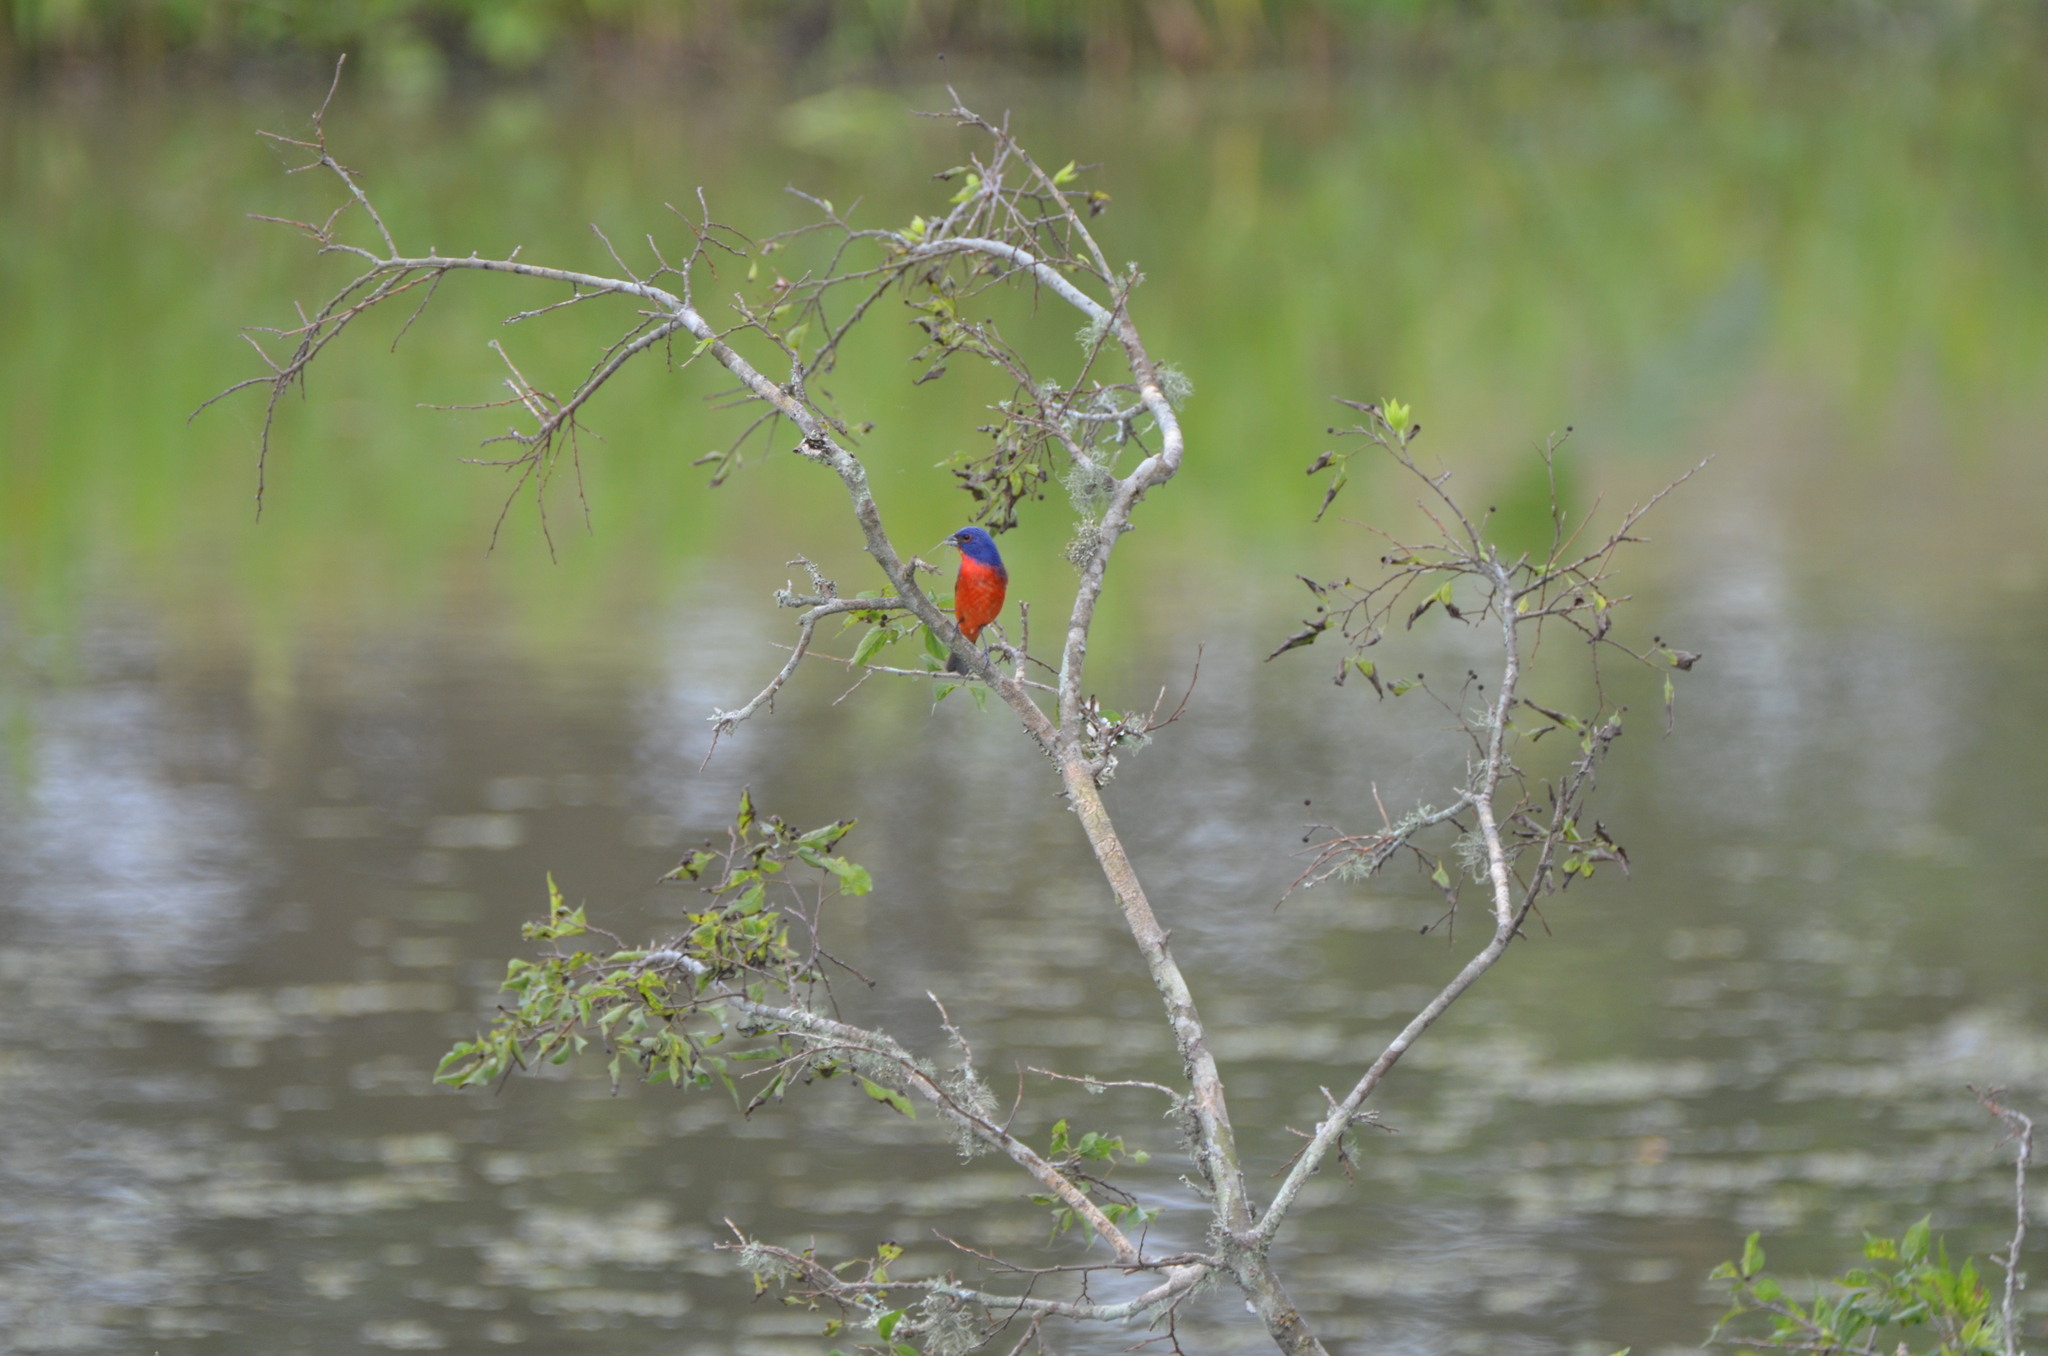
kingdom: Animalia
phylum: Chordata
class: Aves
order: Passeriformes
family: Cardinalidae
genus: Passerina
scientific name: Passerina ciris
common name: Painted bunting
